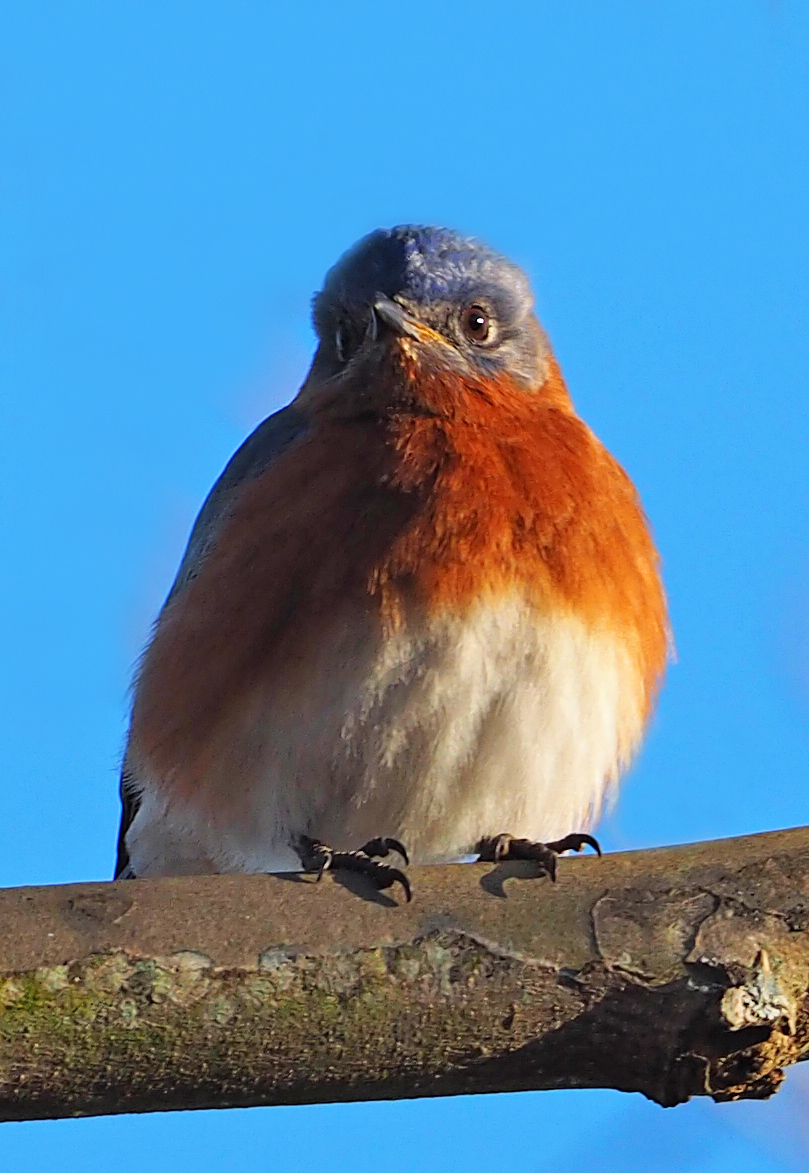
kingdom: Animalia
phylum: Chordata
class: Aves
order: Passeriformes
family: Turdidae
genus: Sialia
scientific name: Sialia sialis
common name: Eastern bluebird
